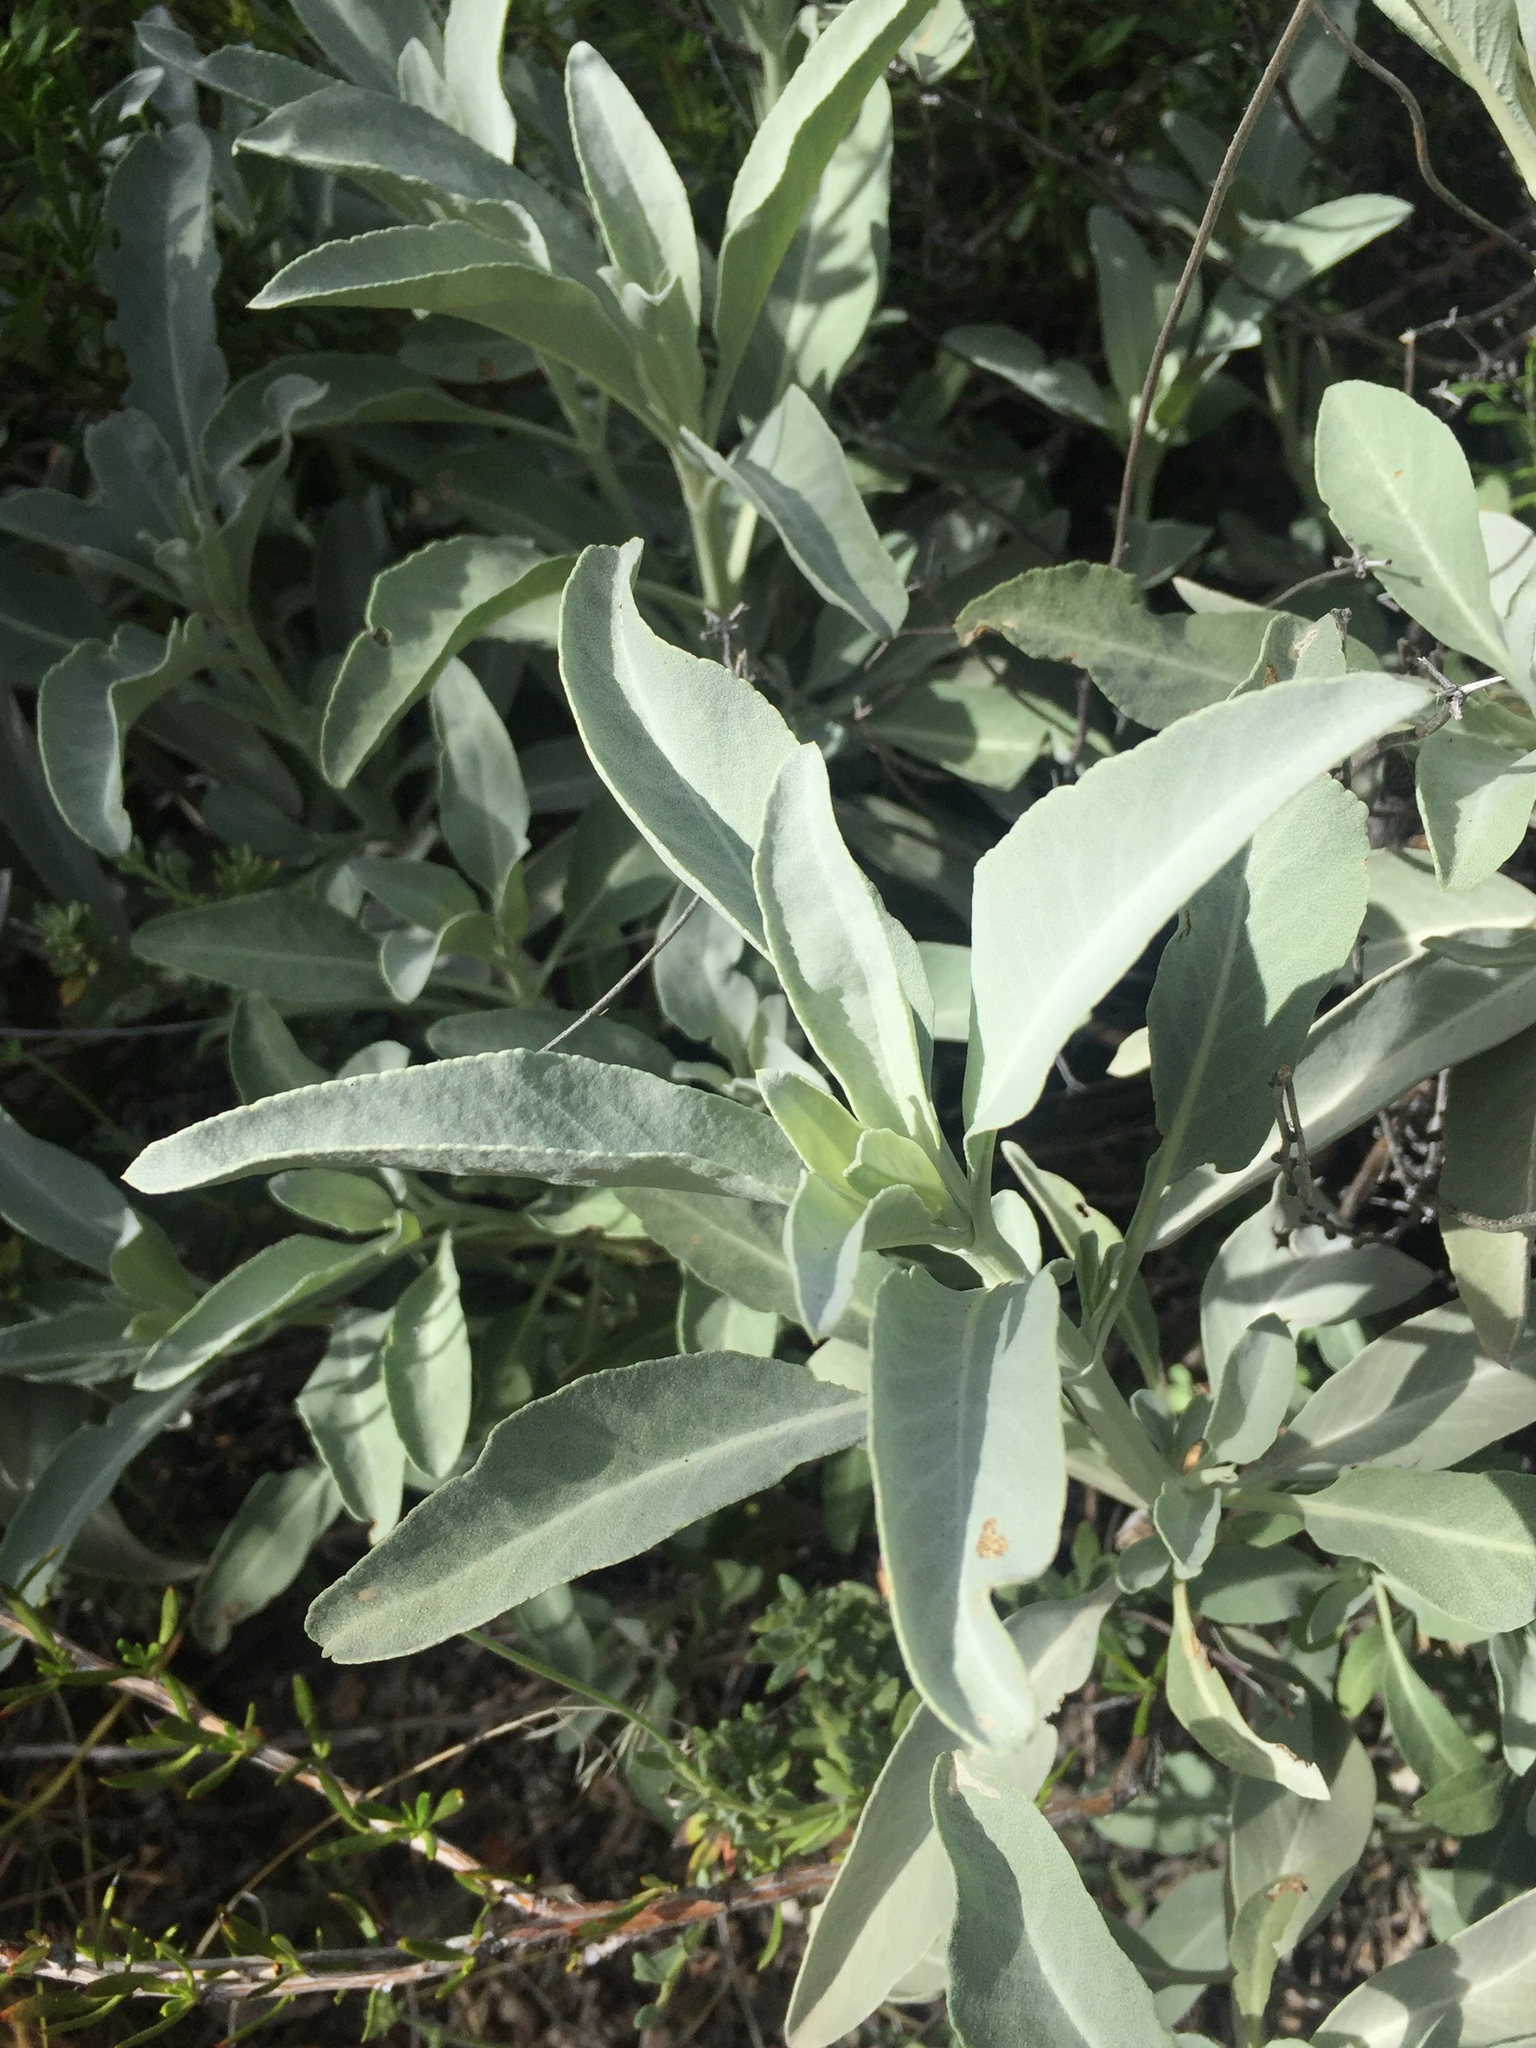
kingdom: Plantae
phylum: Tracheophyta
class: Magnoliopsida
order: Lamiales
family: Lamiaceae
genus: Salvia
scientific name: Salvia apiana
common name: White sage
